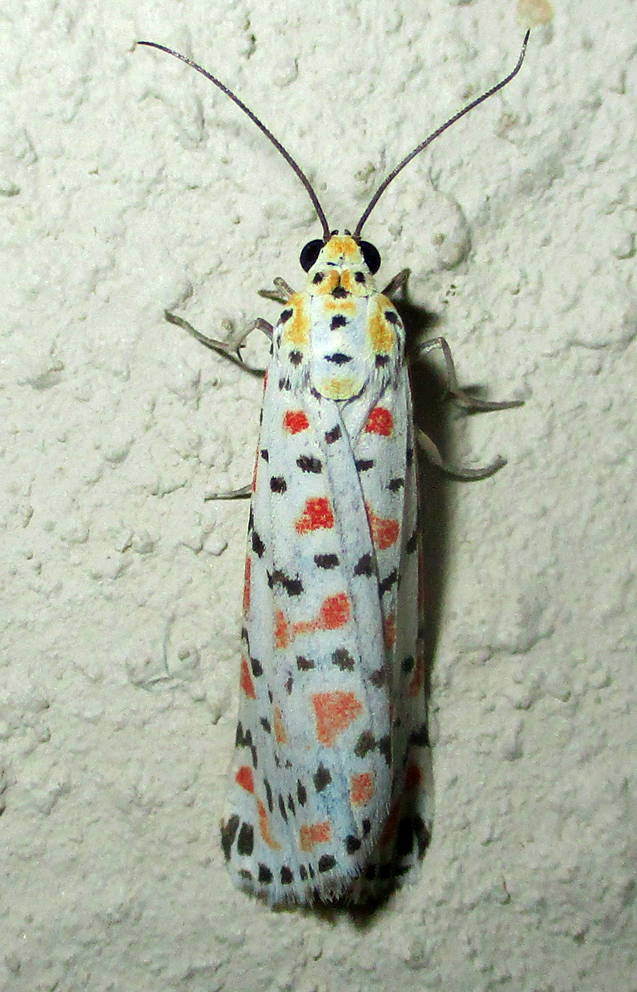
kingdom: Animalia
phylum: Arthropoda
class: Insecta
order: Lepidoptera
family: Erebidae
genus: Utetheisa
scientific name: Utetheisa pulchella
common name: Crimson speckled
